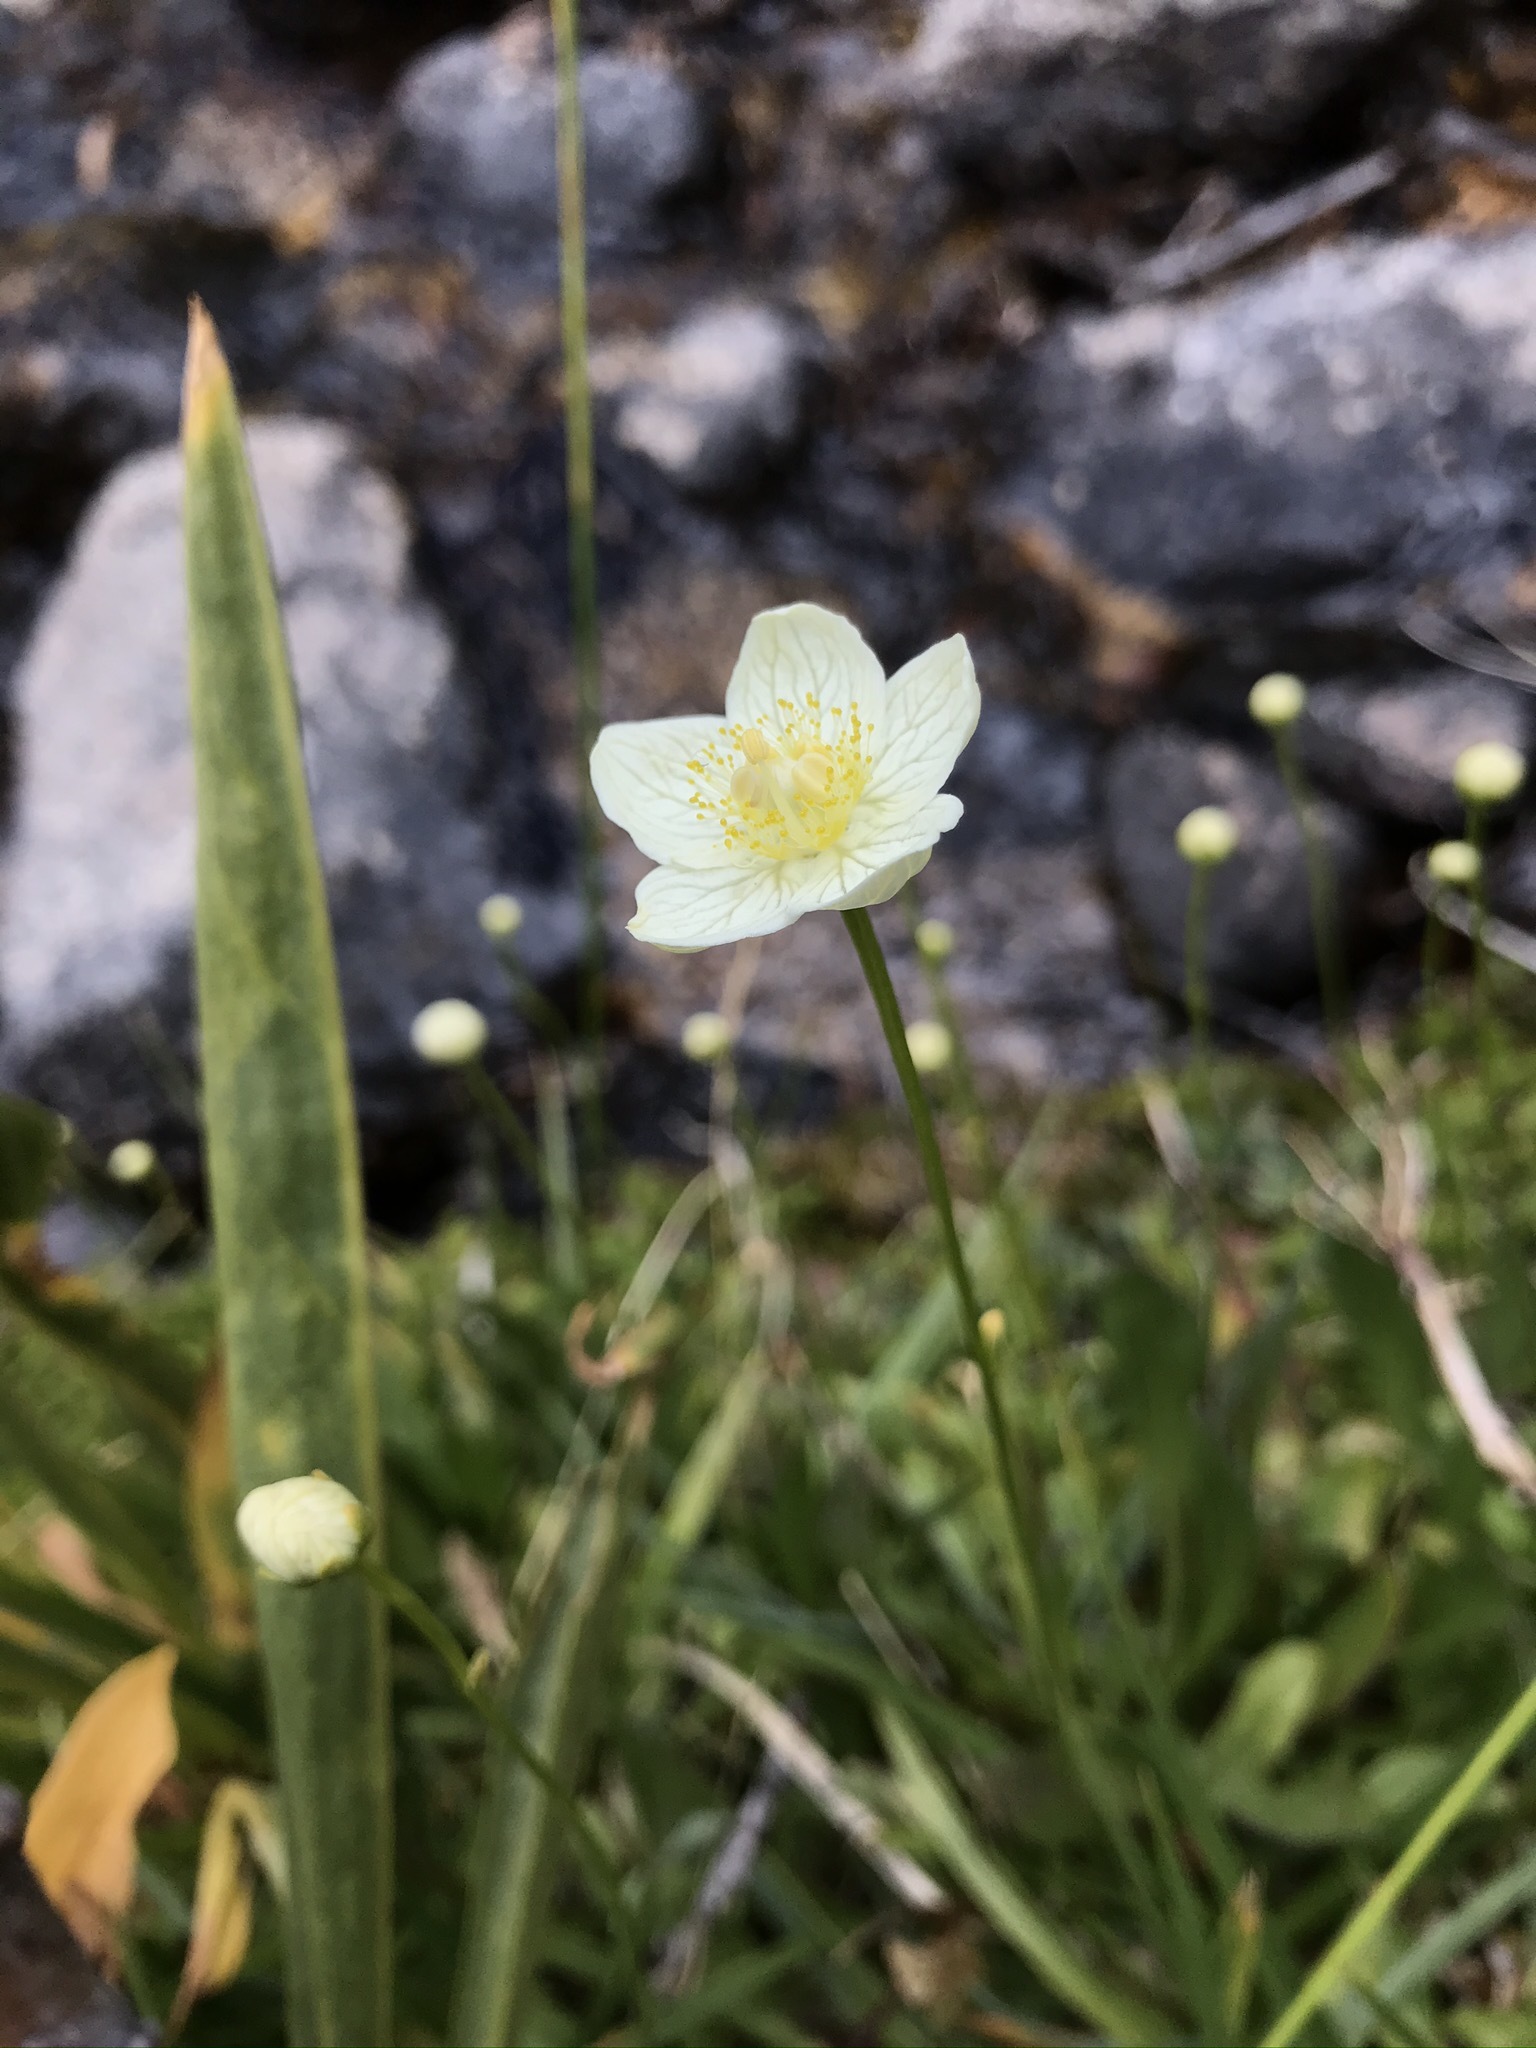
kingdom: Plantae
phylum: Tracheophyta
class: Magnoliopsida
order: Celastrales
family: Parnassiaceae
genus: Parnassia
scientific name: Parnassia palustris
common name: Grass-of-parnassus
